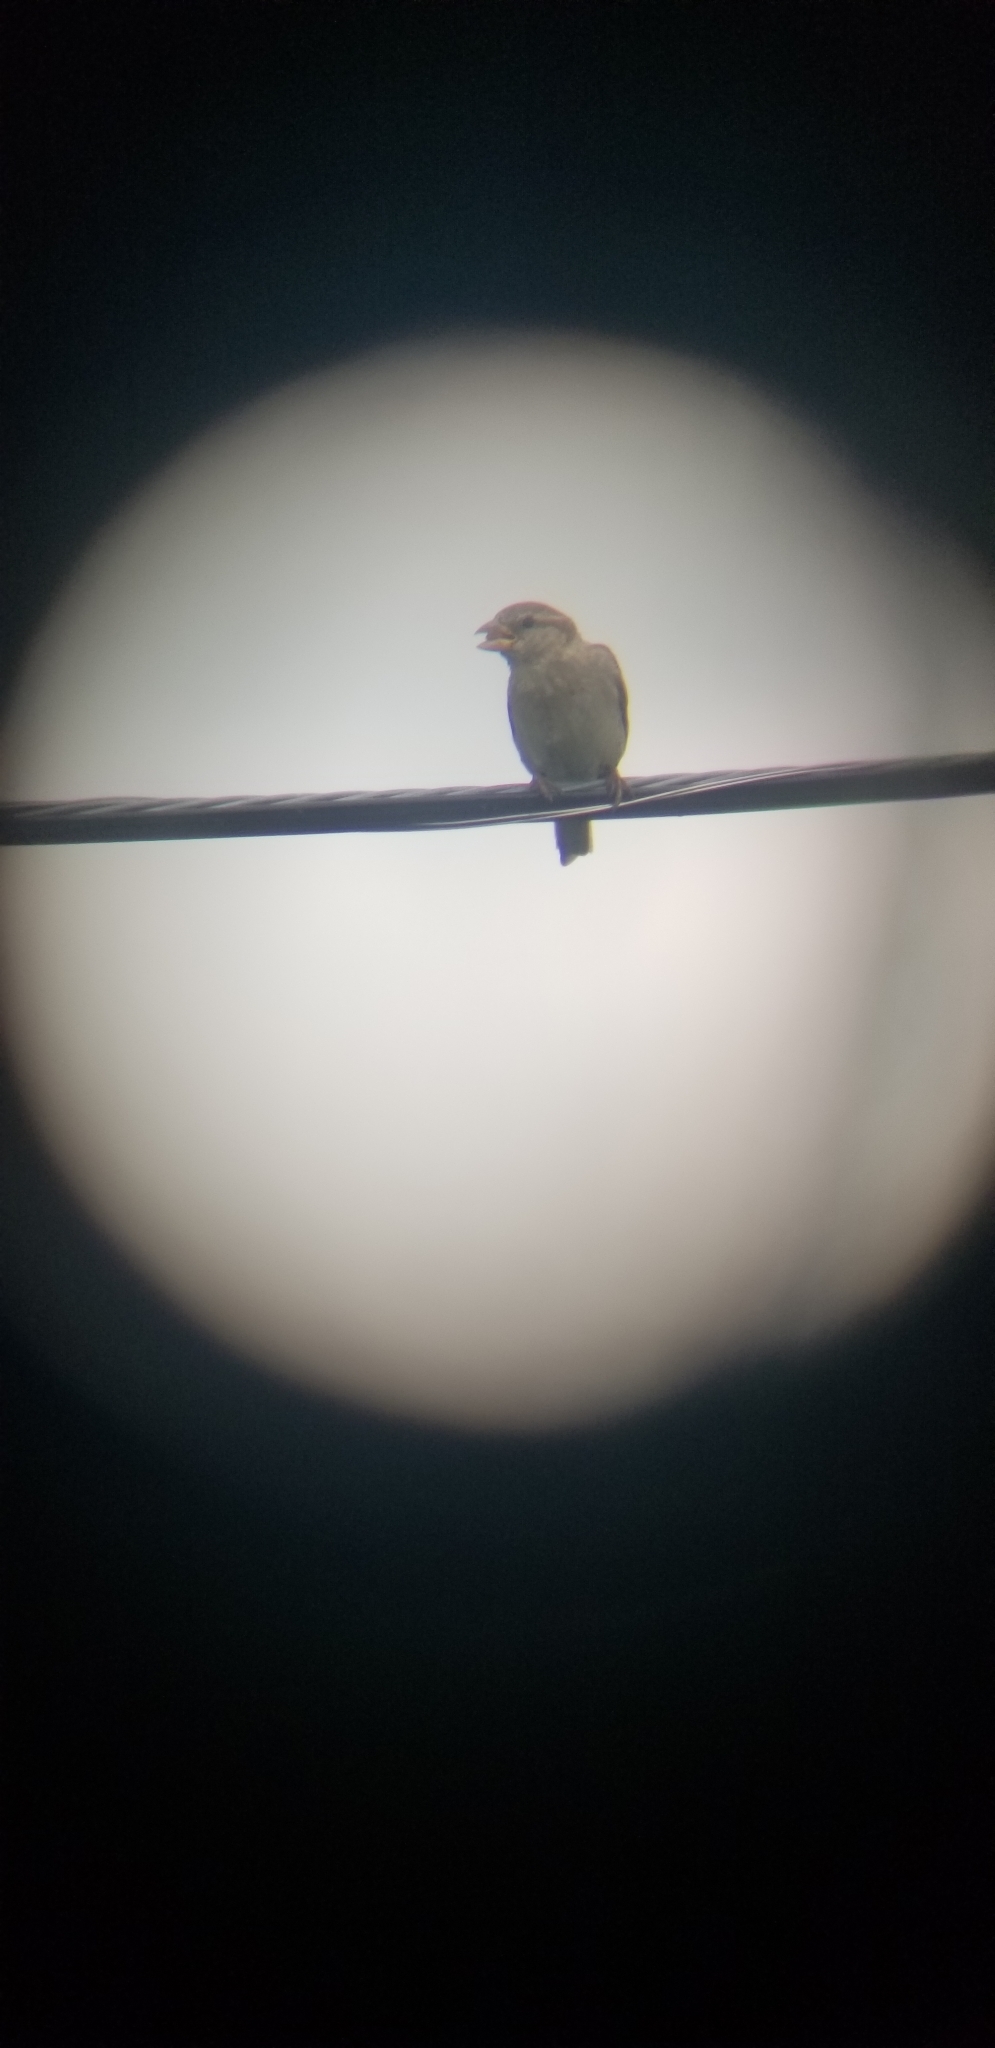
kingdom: Animalia
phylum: Chordata
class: Aves
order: Passeriformes
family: Passeridae
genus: Passer
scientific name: Passer domesticus
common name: House sparrow
